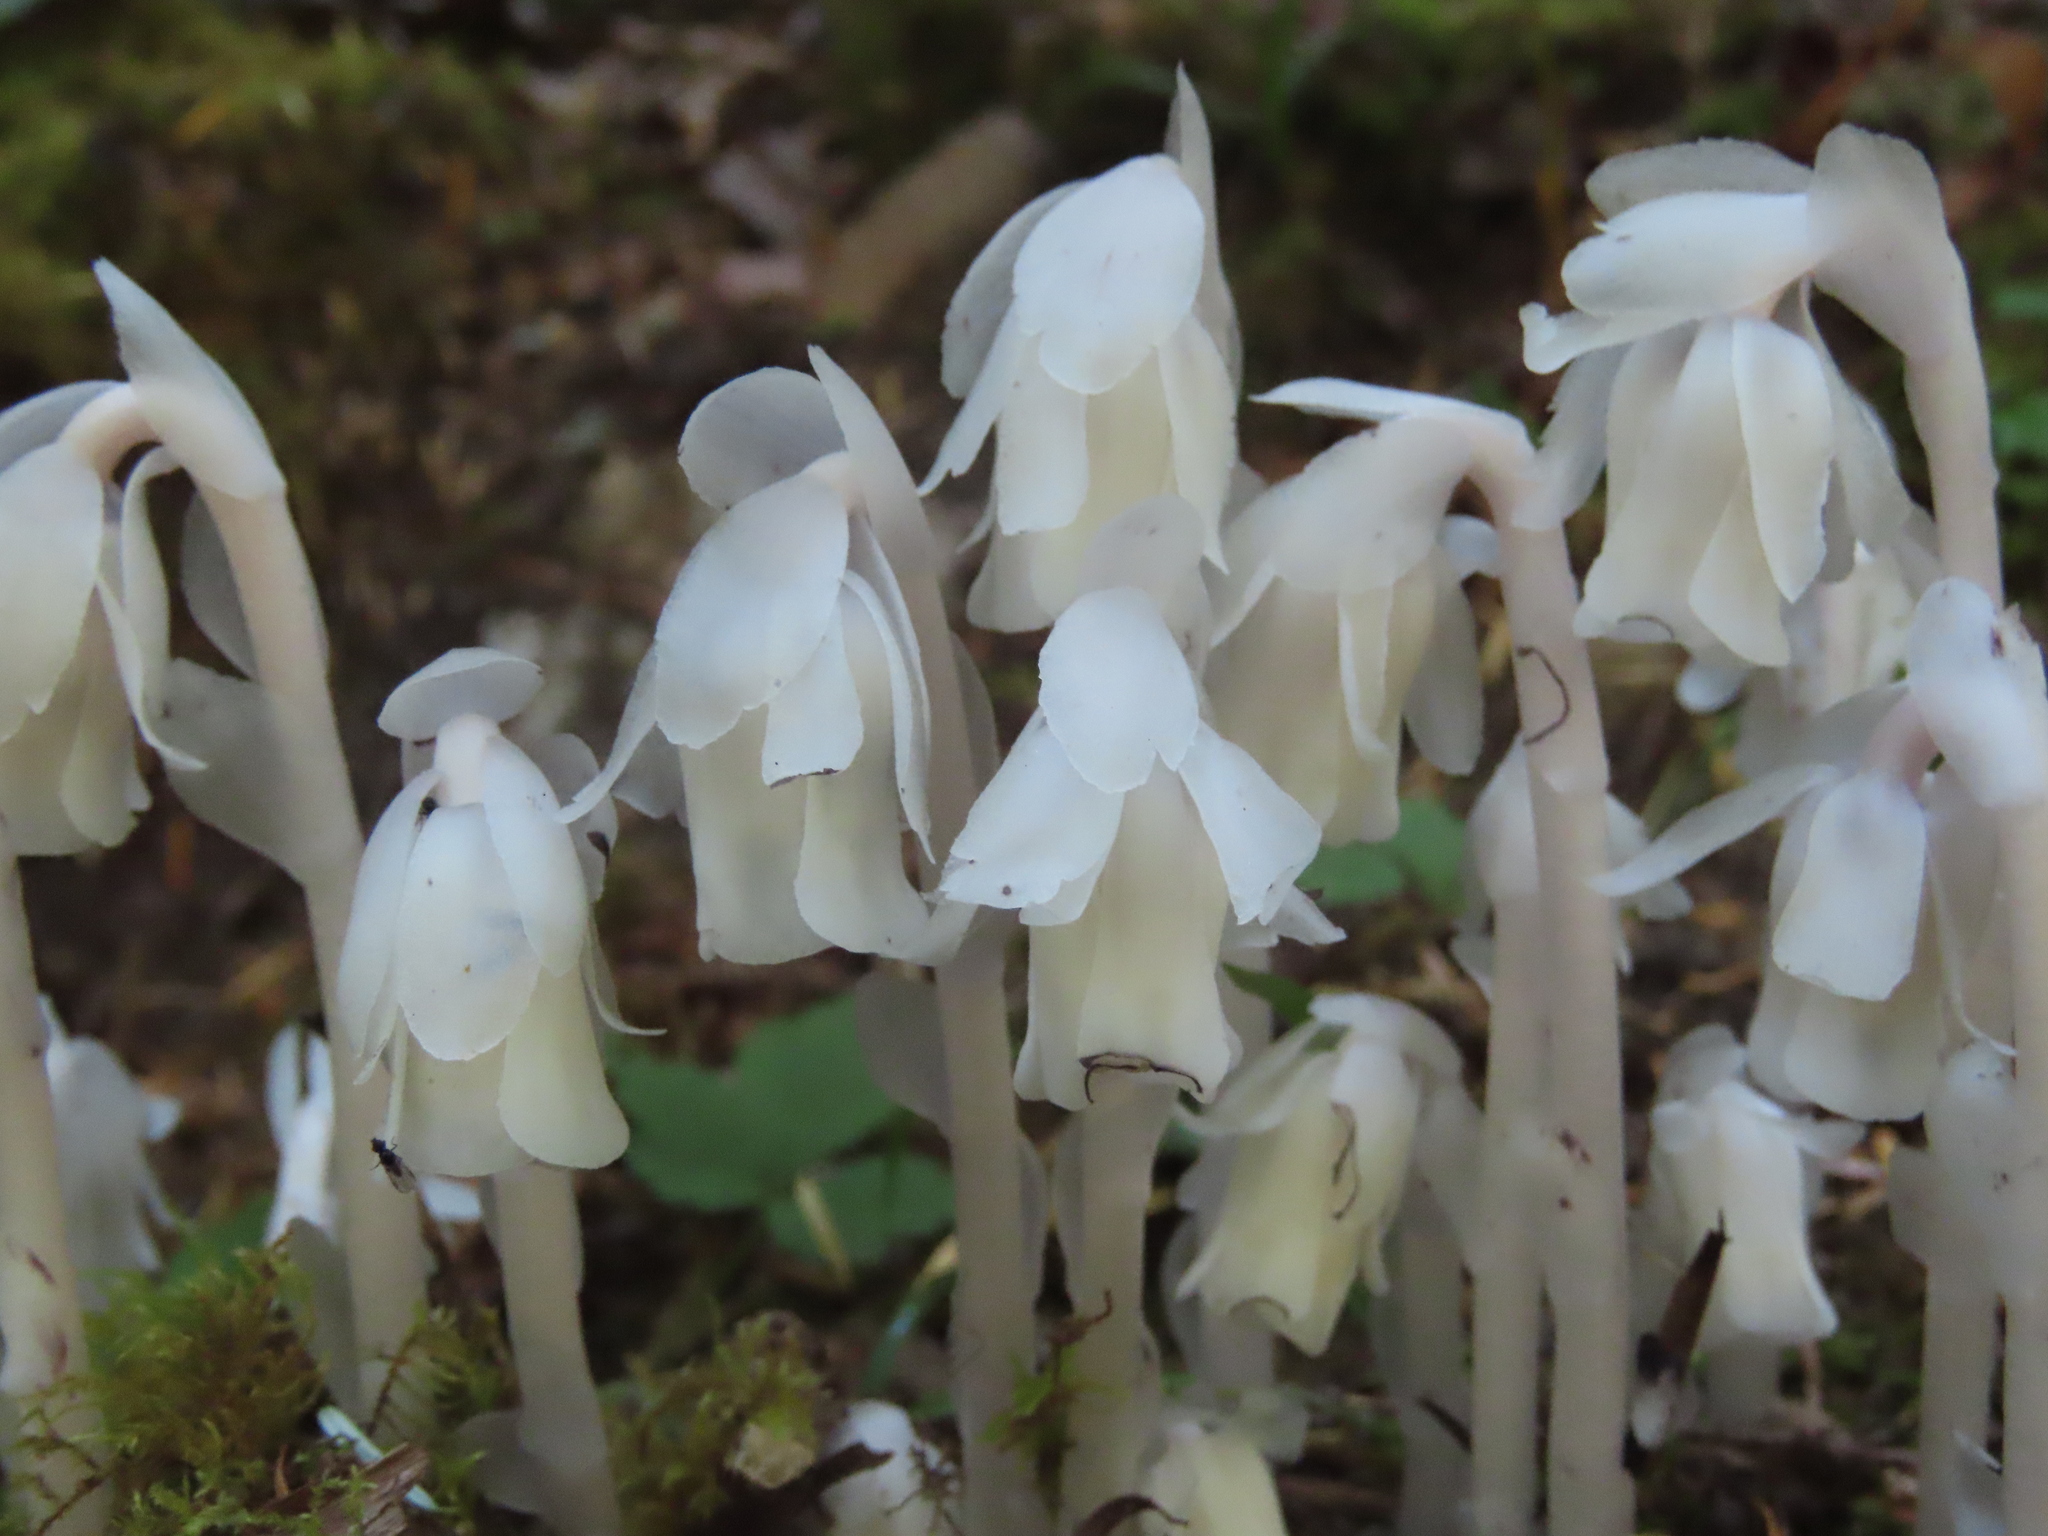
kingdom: Plantae
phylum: Tracheophyta
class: Magnoliopsida
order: Ericales
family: Ericaceae
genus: Monotropa
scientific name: Monotropa uniflora
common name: Convulsion root
